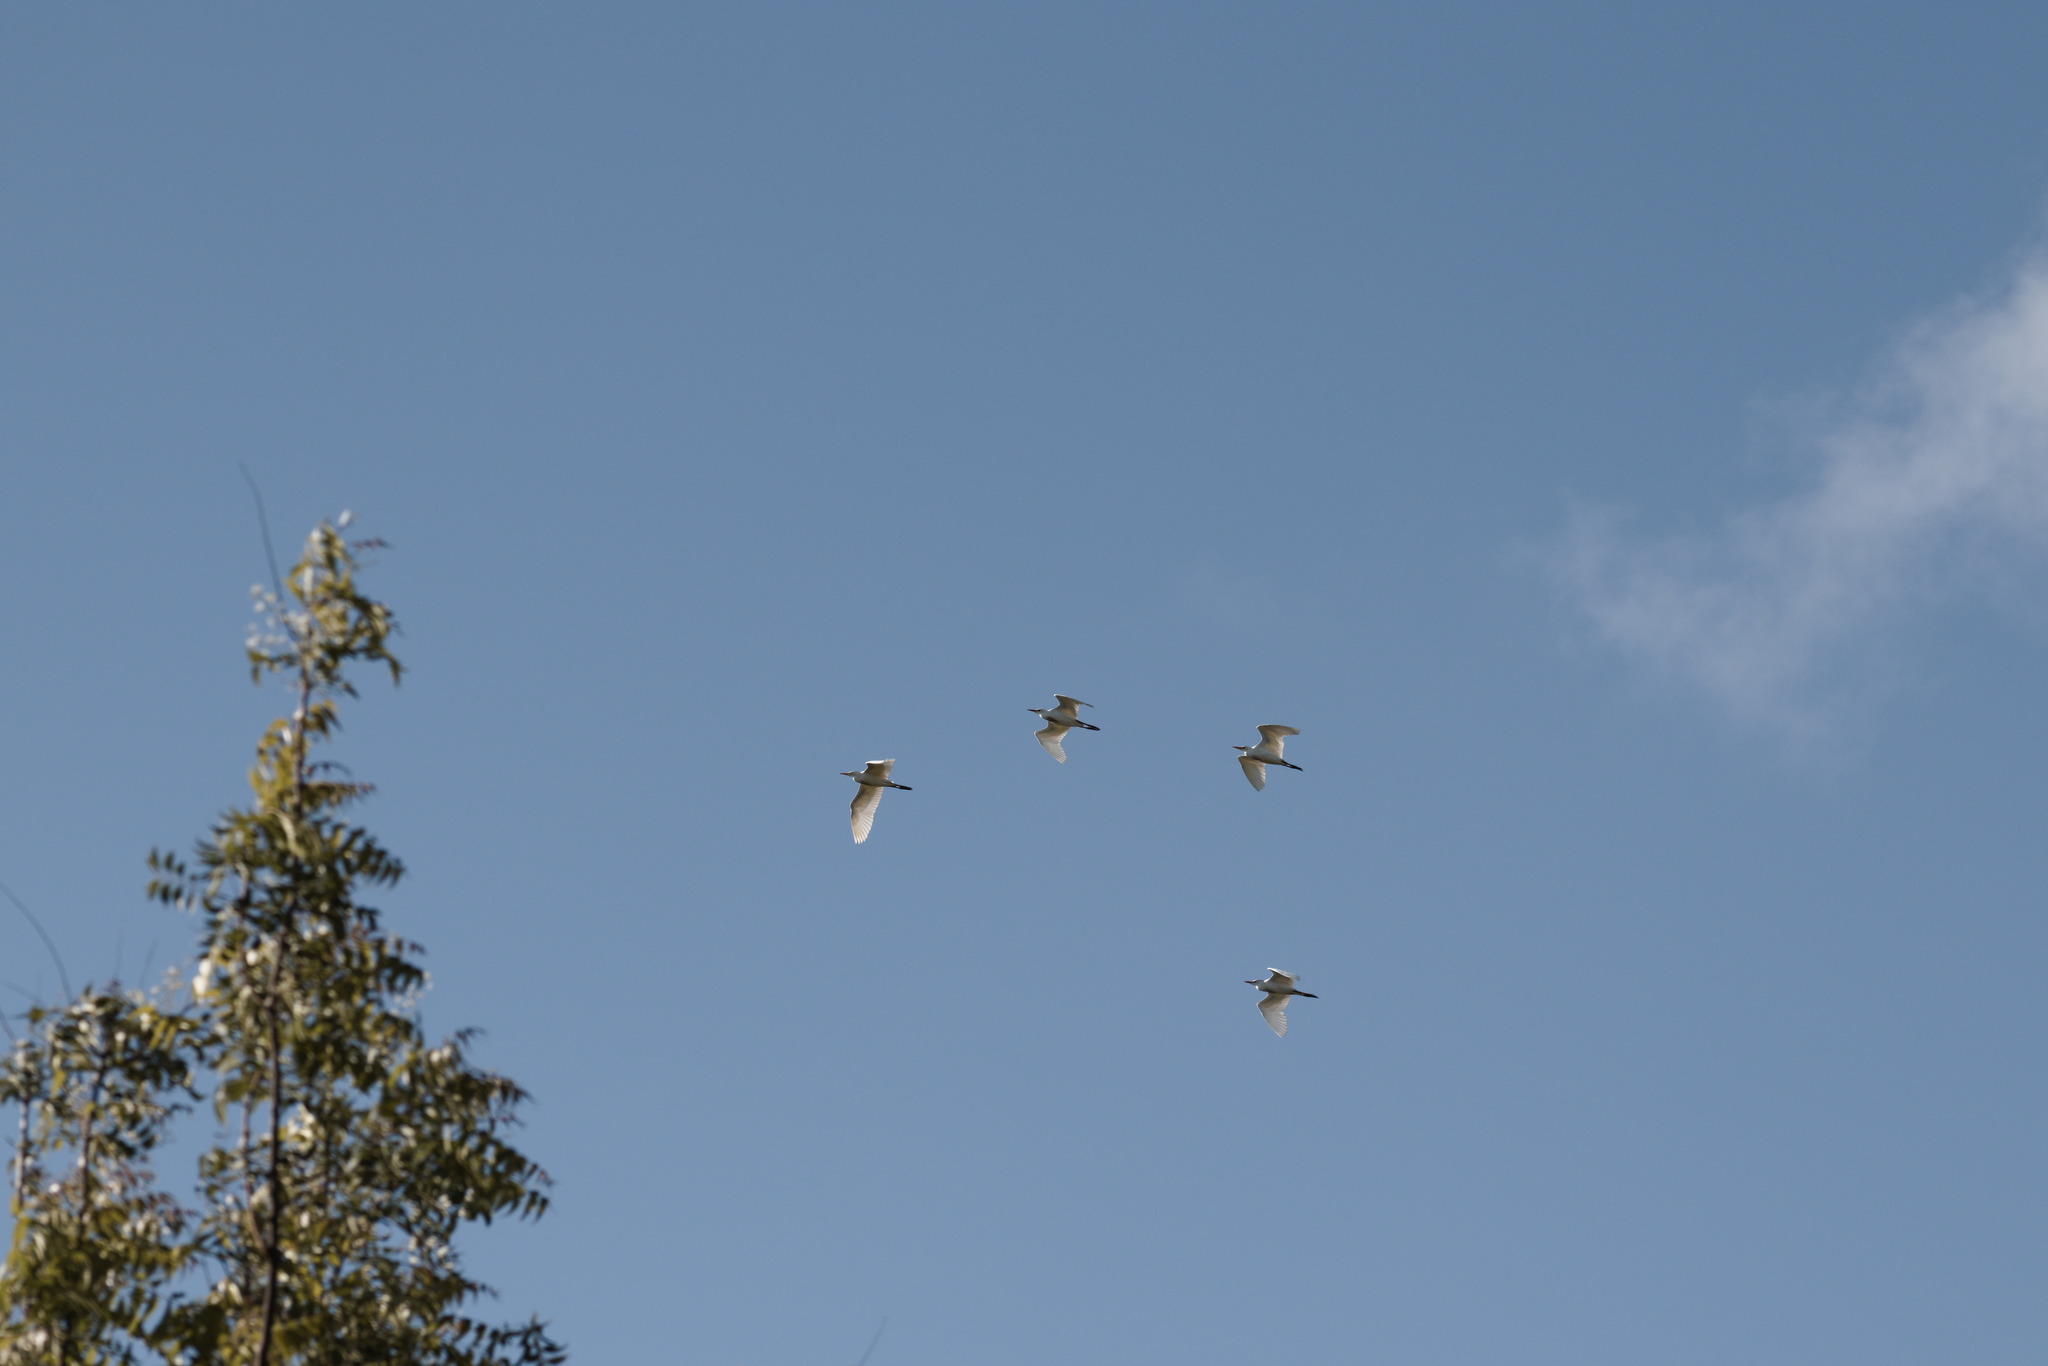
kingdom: Animalia
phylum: Chordata
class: Aves
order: Pelecaniformes
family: Ardeidae
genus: Ardea
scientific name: Ardea alba
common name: Great egret
